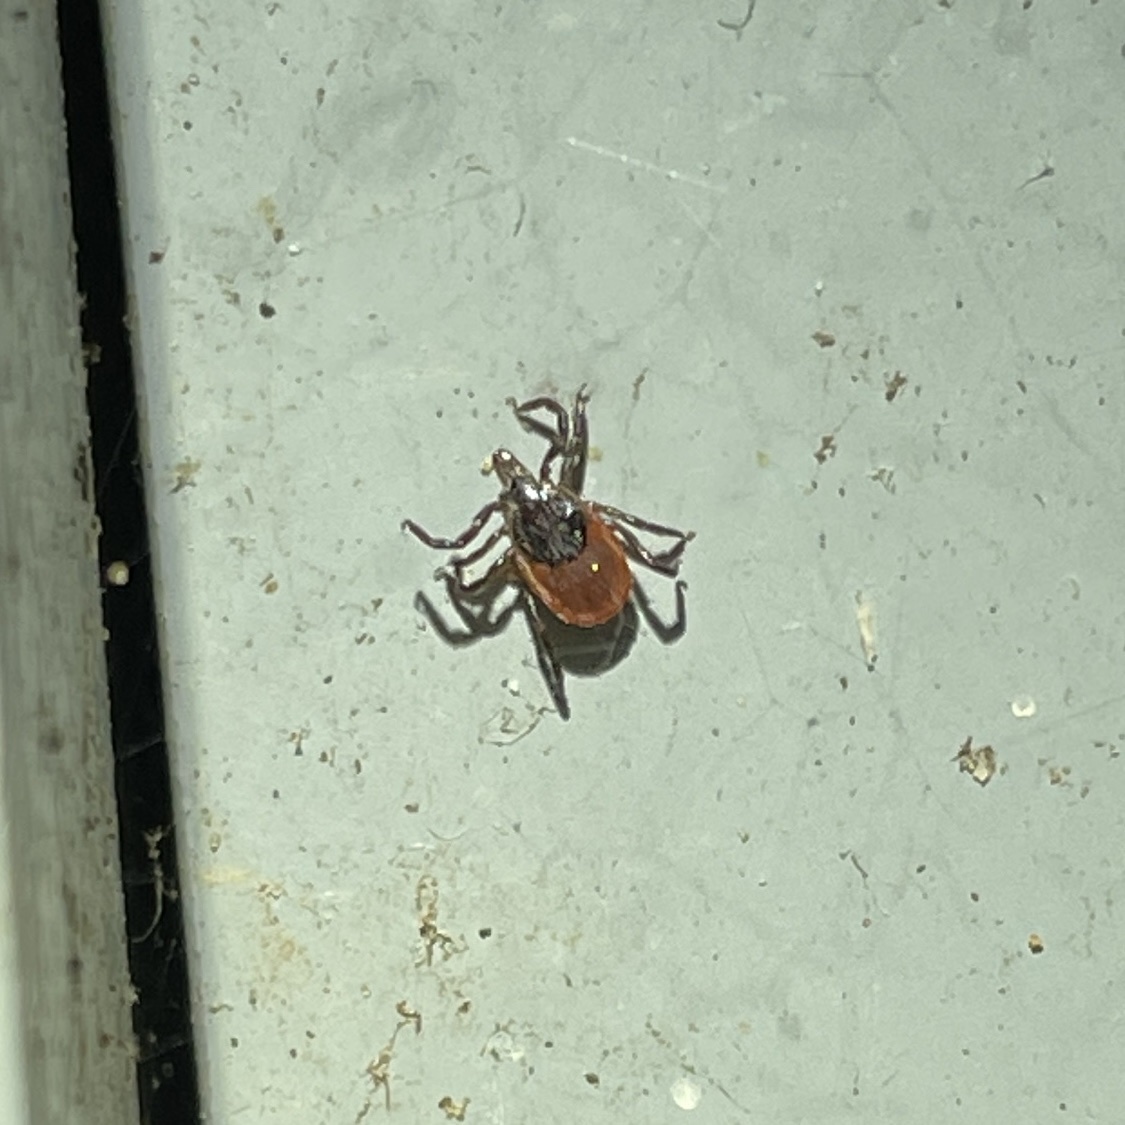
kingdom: Animalia
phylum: Arthropoda
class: Arachnida
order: Ixodida
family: Ixodidae
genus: Ixodes
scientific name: Ixodes scapularis
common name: Black legged tick
